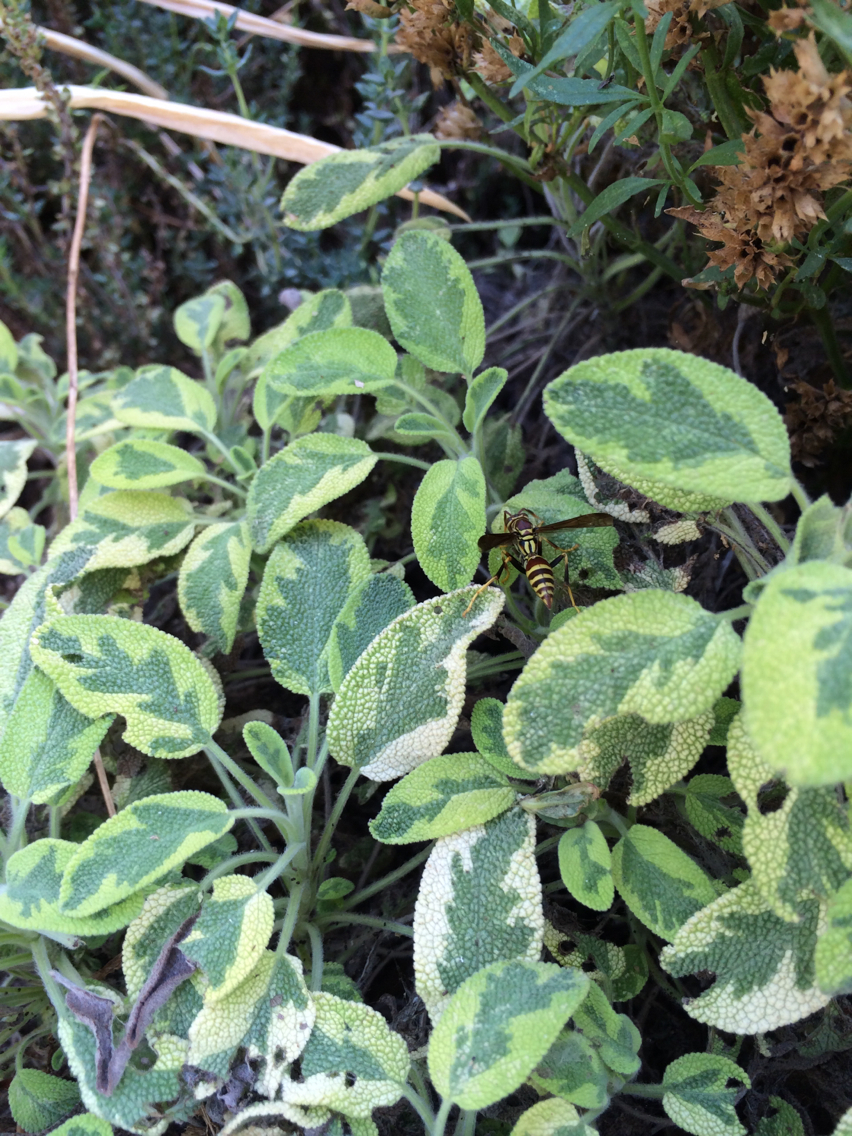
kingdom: Animalia
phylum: Arthropoda
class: Insecta
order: Hymenoptera
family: Eumenidae
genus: Polistes
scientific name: Polistes exclamans
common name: Paper wasp
